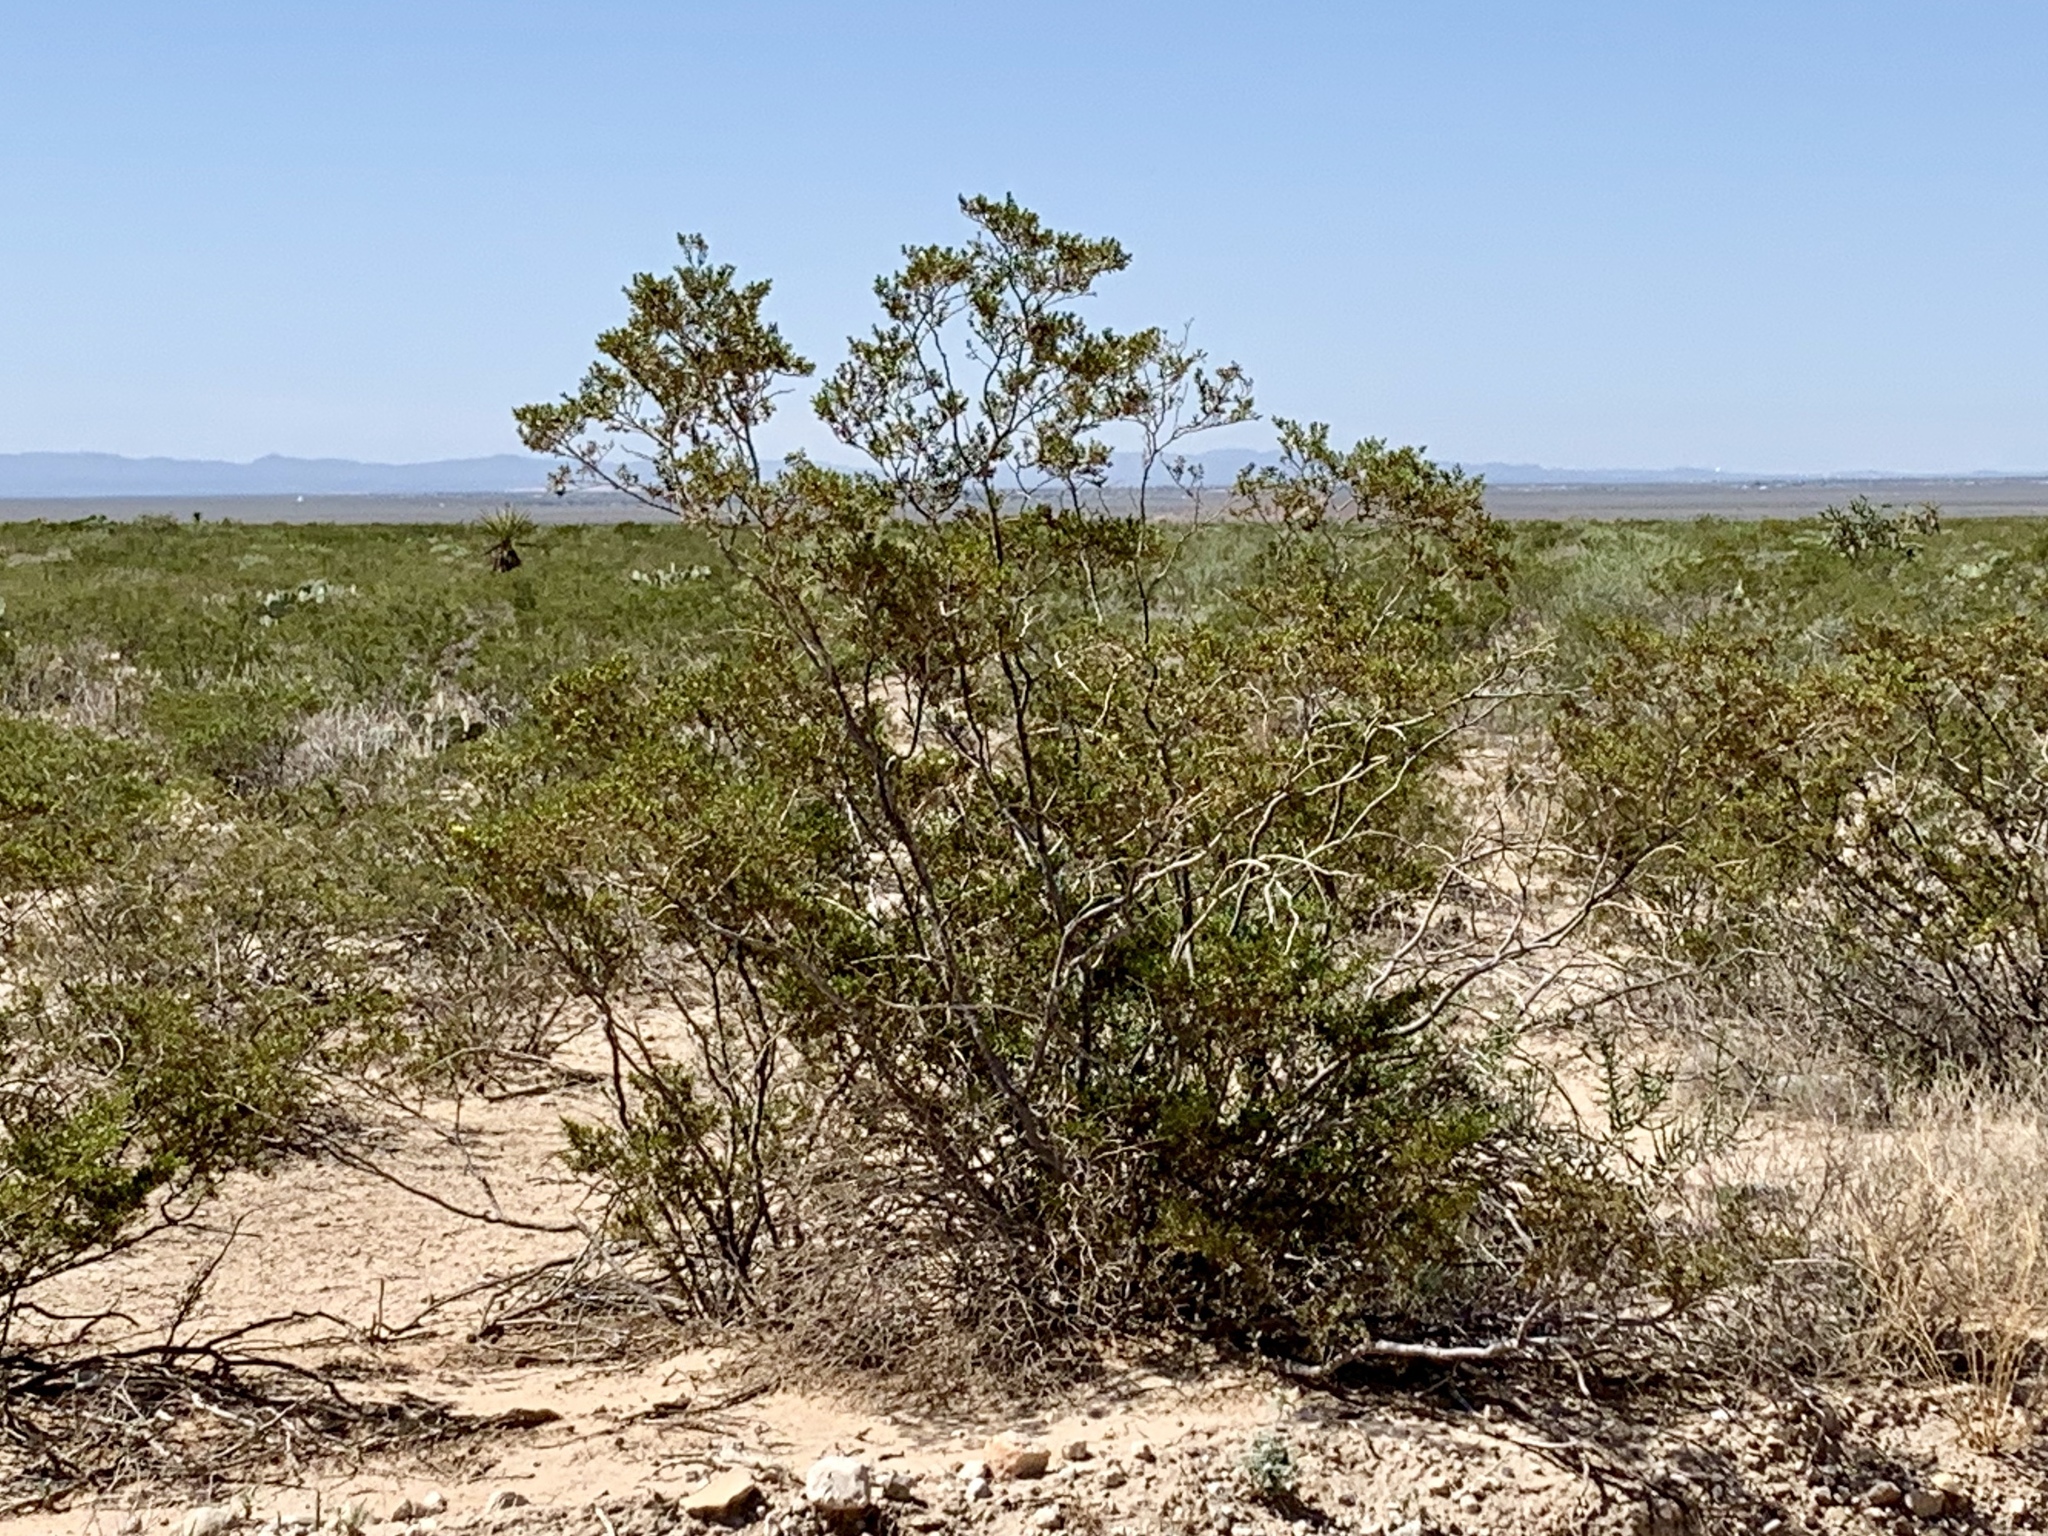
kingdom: Plantae
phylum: Tracheophyta
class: Magnoliopsida
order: Zygophyllales
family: Zygophyllaceae
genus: Larrea
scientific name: Larrea tridentata
